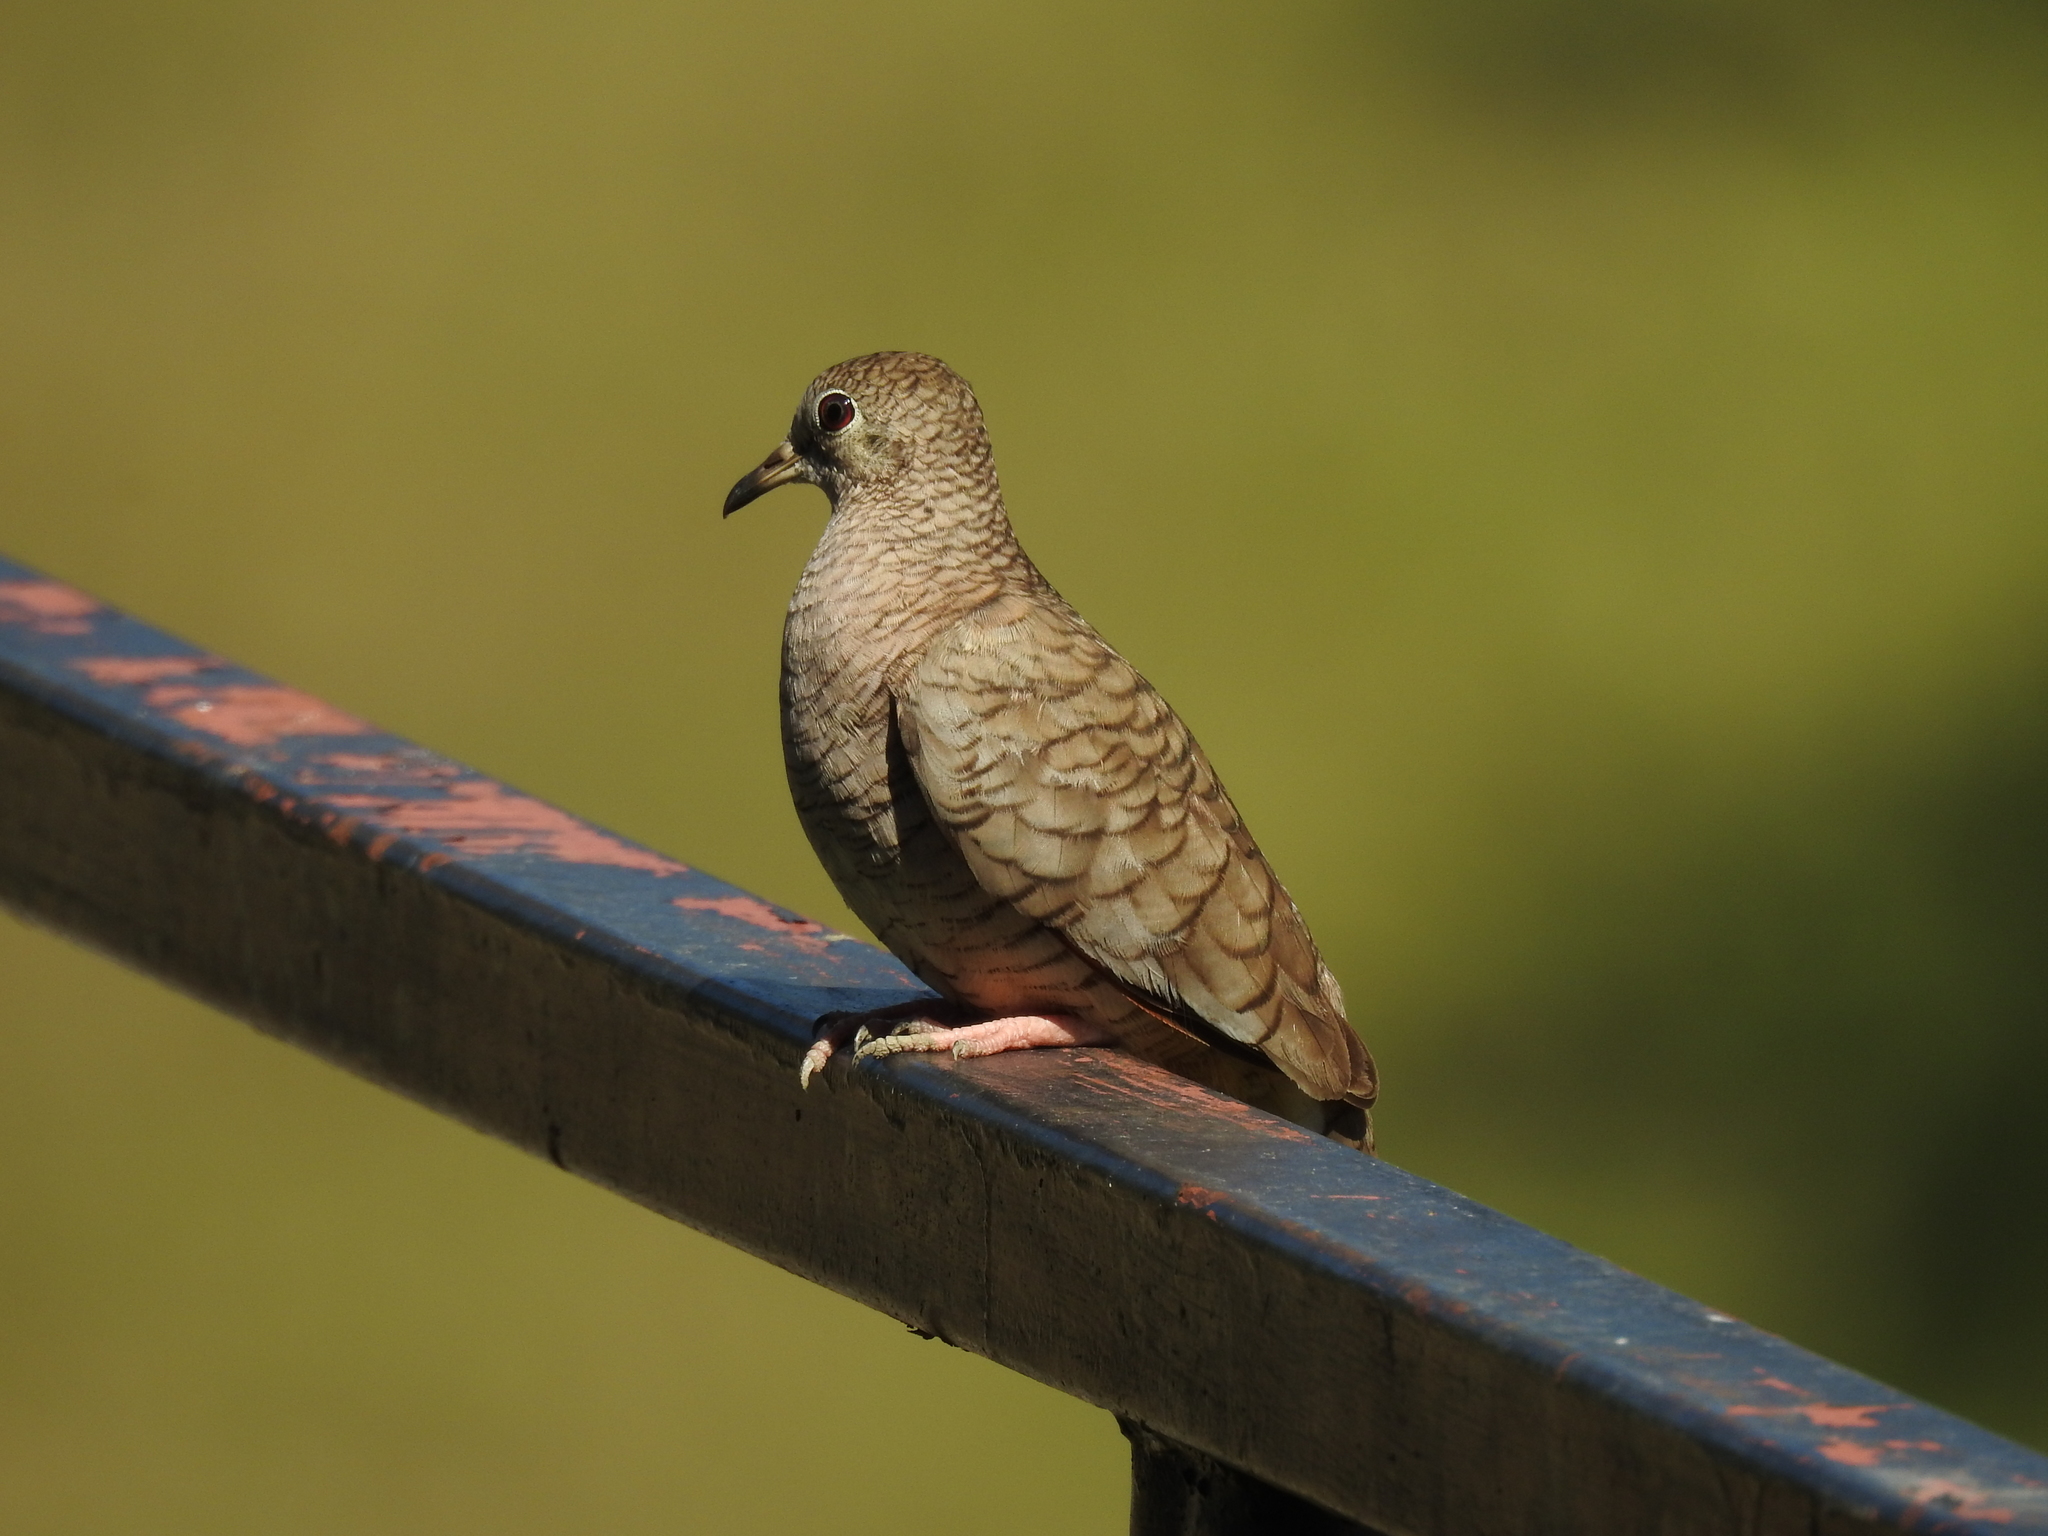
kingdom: Animalia
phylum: Chordata
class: Aves
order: Columbiformes
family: Columbidae
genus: Columbina
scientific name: Columbina inca
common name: Inca dove
